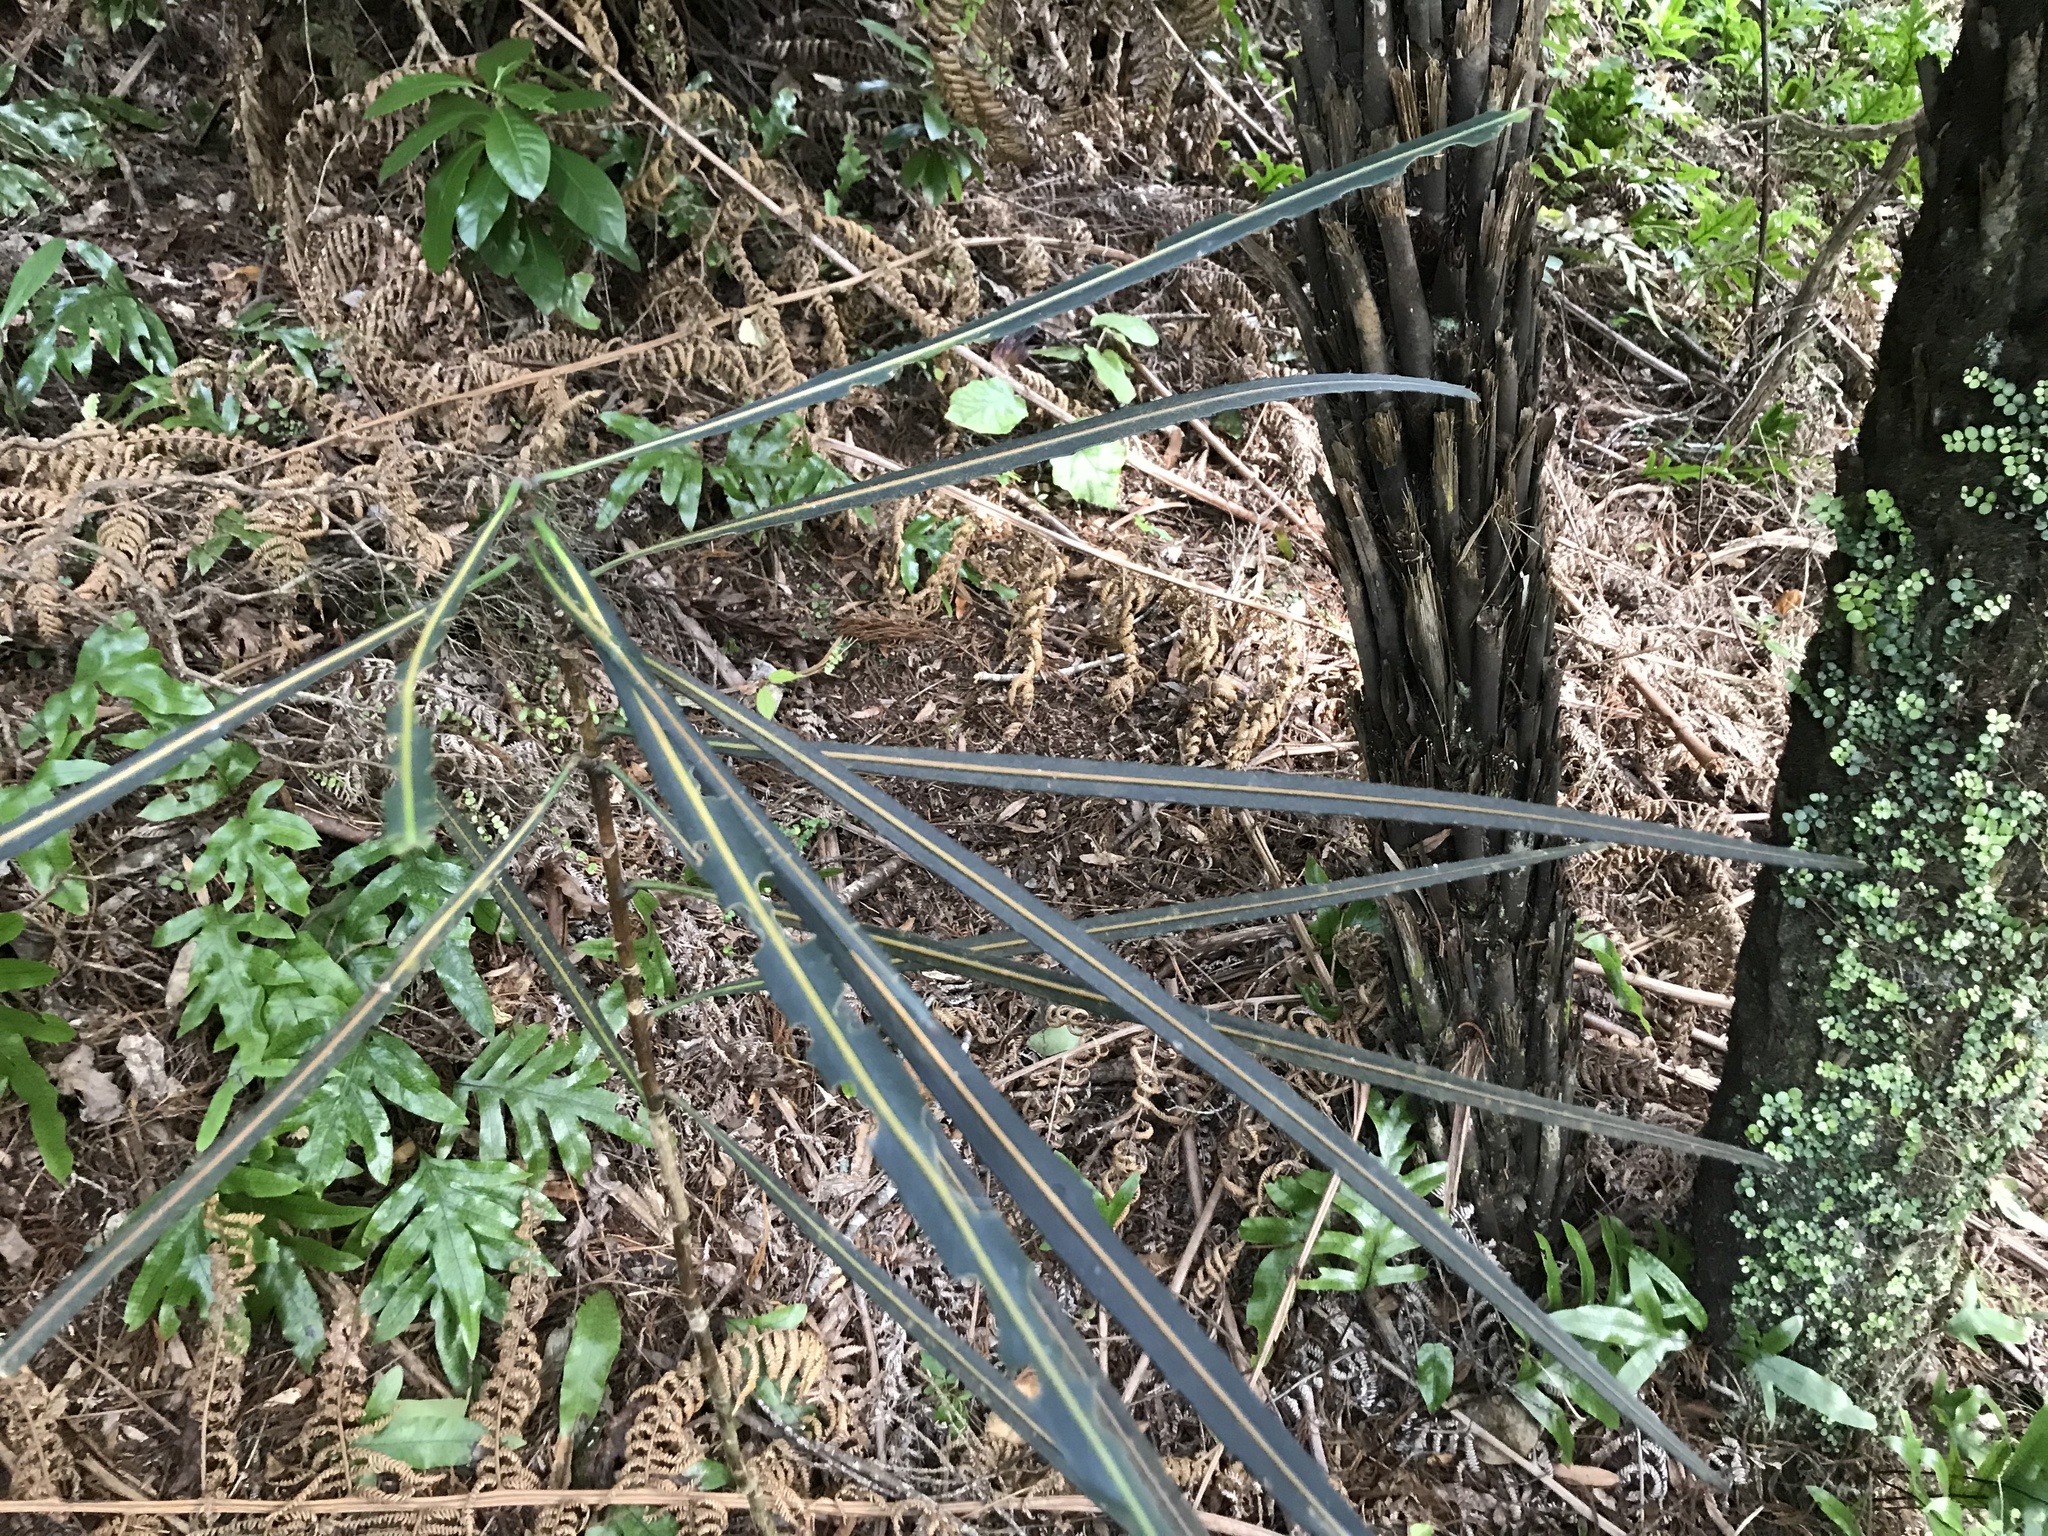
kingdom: Plantae
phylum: Tracheophyta
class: Magnoliopsida
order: Apiales
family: Araliaceae
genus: Pseudopanax
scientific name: Pseudopanax crassifolius
